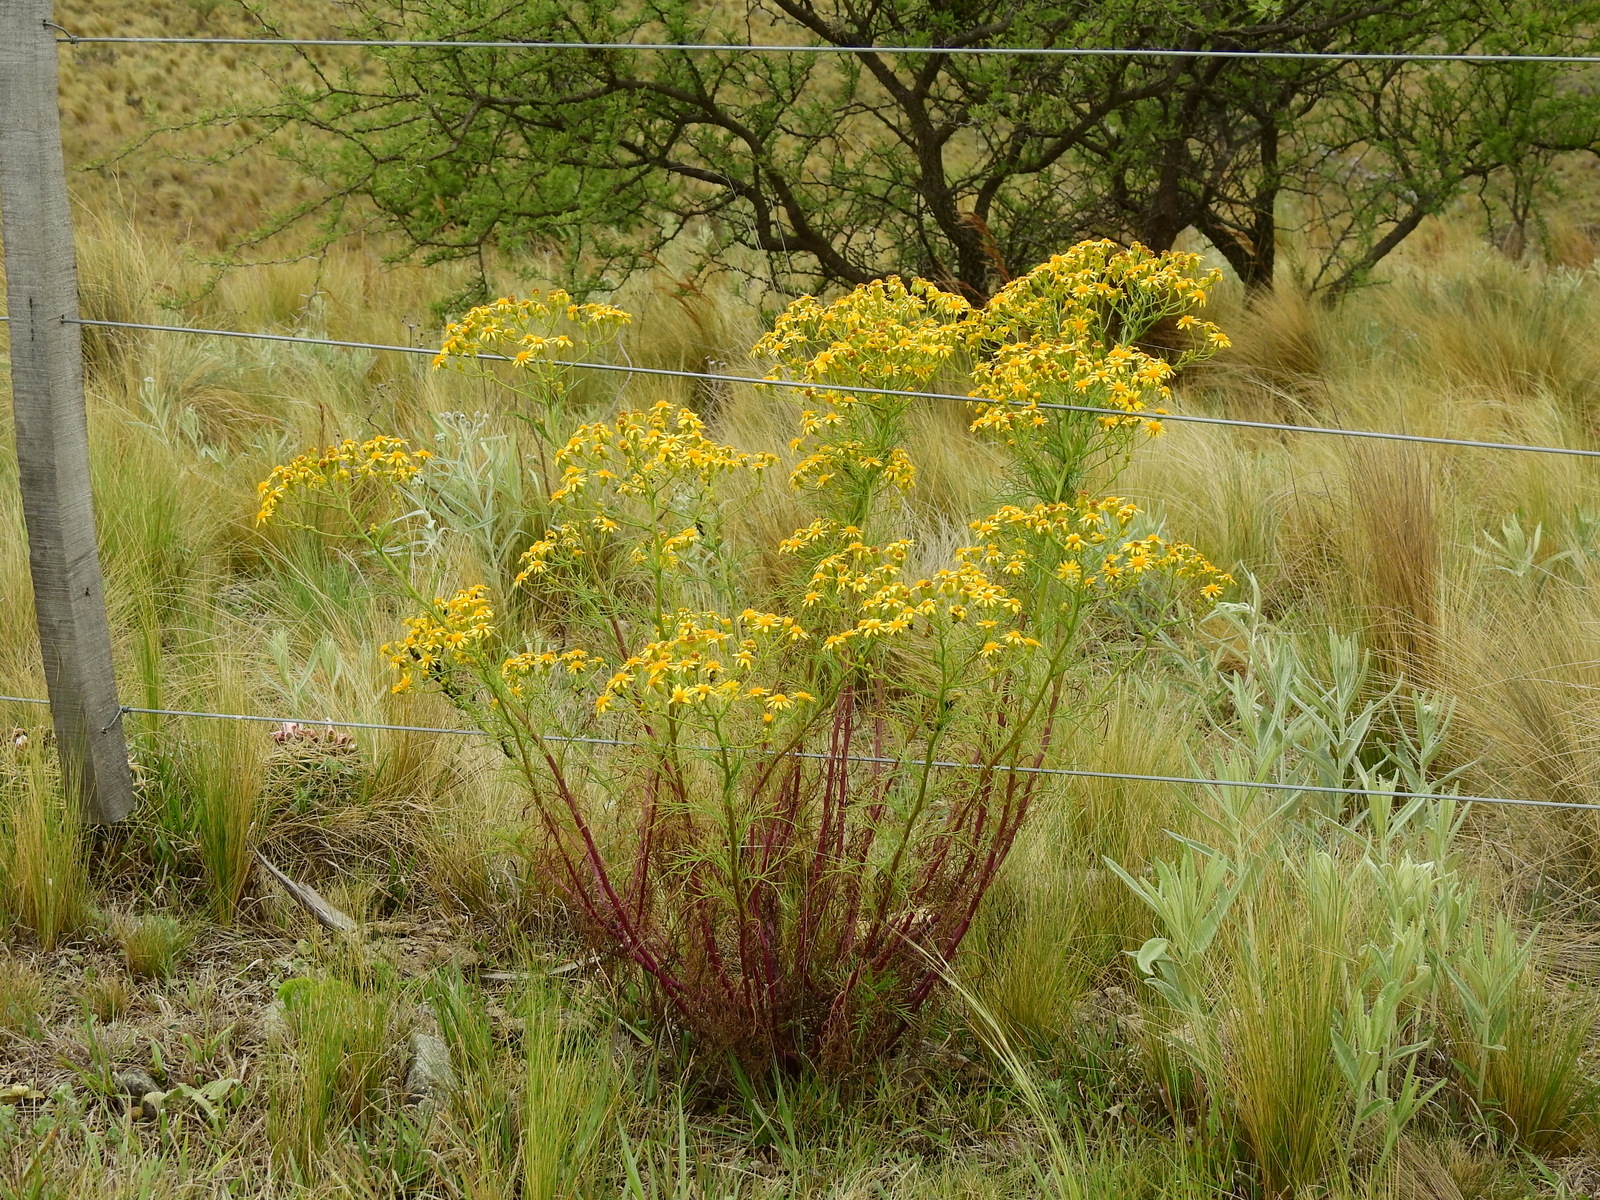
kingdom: Plantae
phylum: Tracheophyta
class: Magnoliopsida
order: Asterales
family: Asteraceae
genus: Senecio
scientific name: Senecio pampeanus
